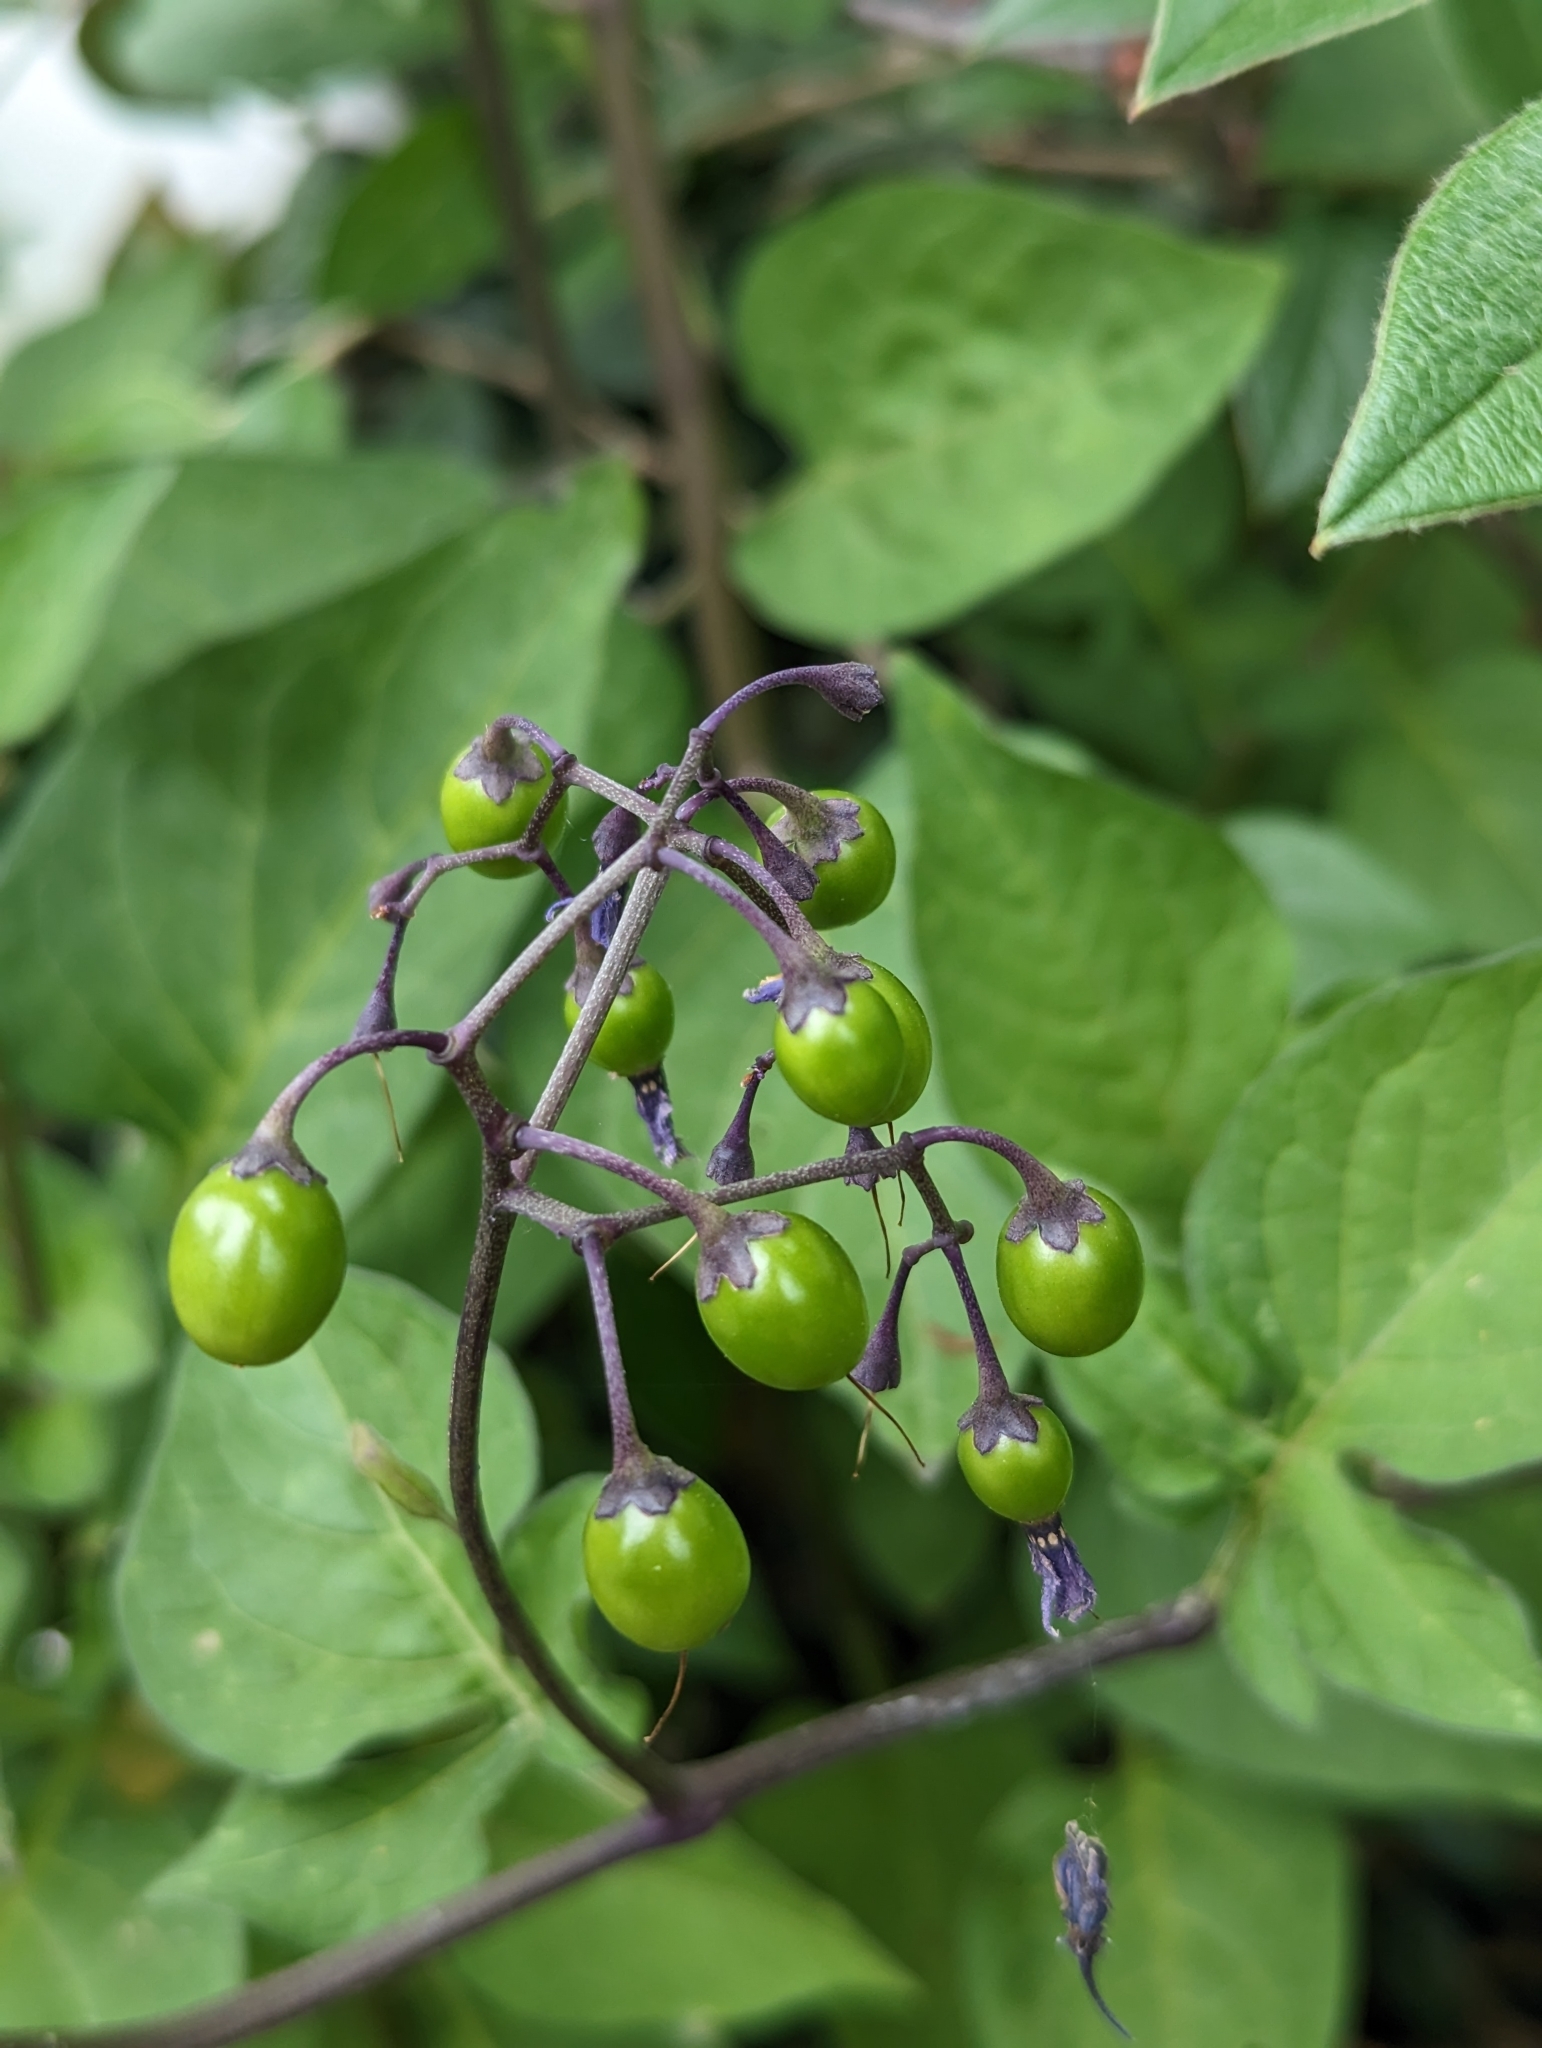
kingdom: Plantae
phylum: Tracheophyta
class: Magnoliopsida
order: Solanales
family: Solanaceae
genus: Solanum
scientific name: Solanum dulcamara
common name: Climbing nightshade
